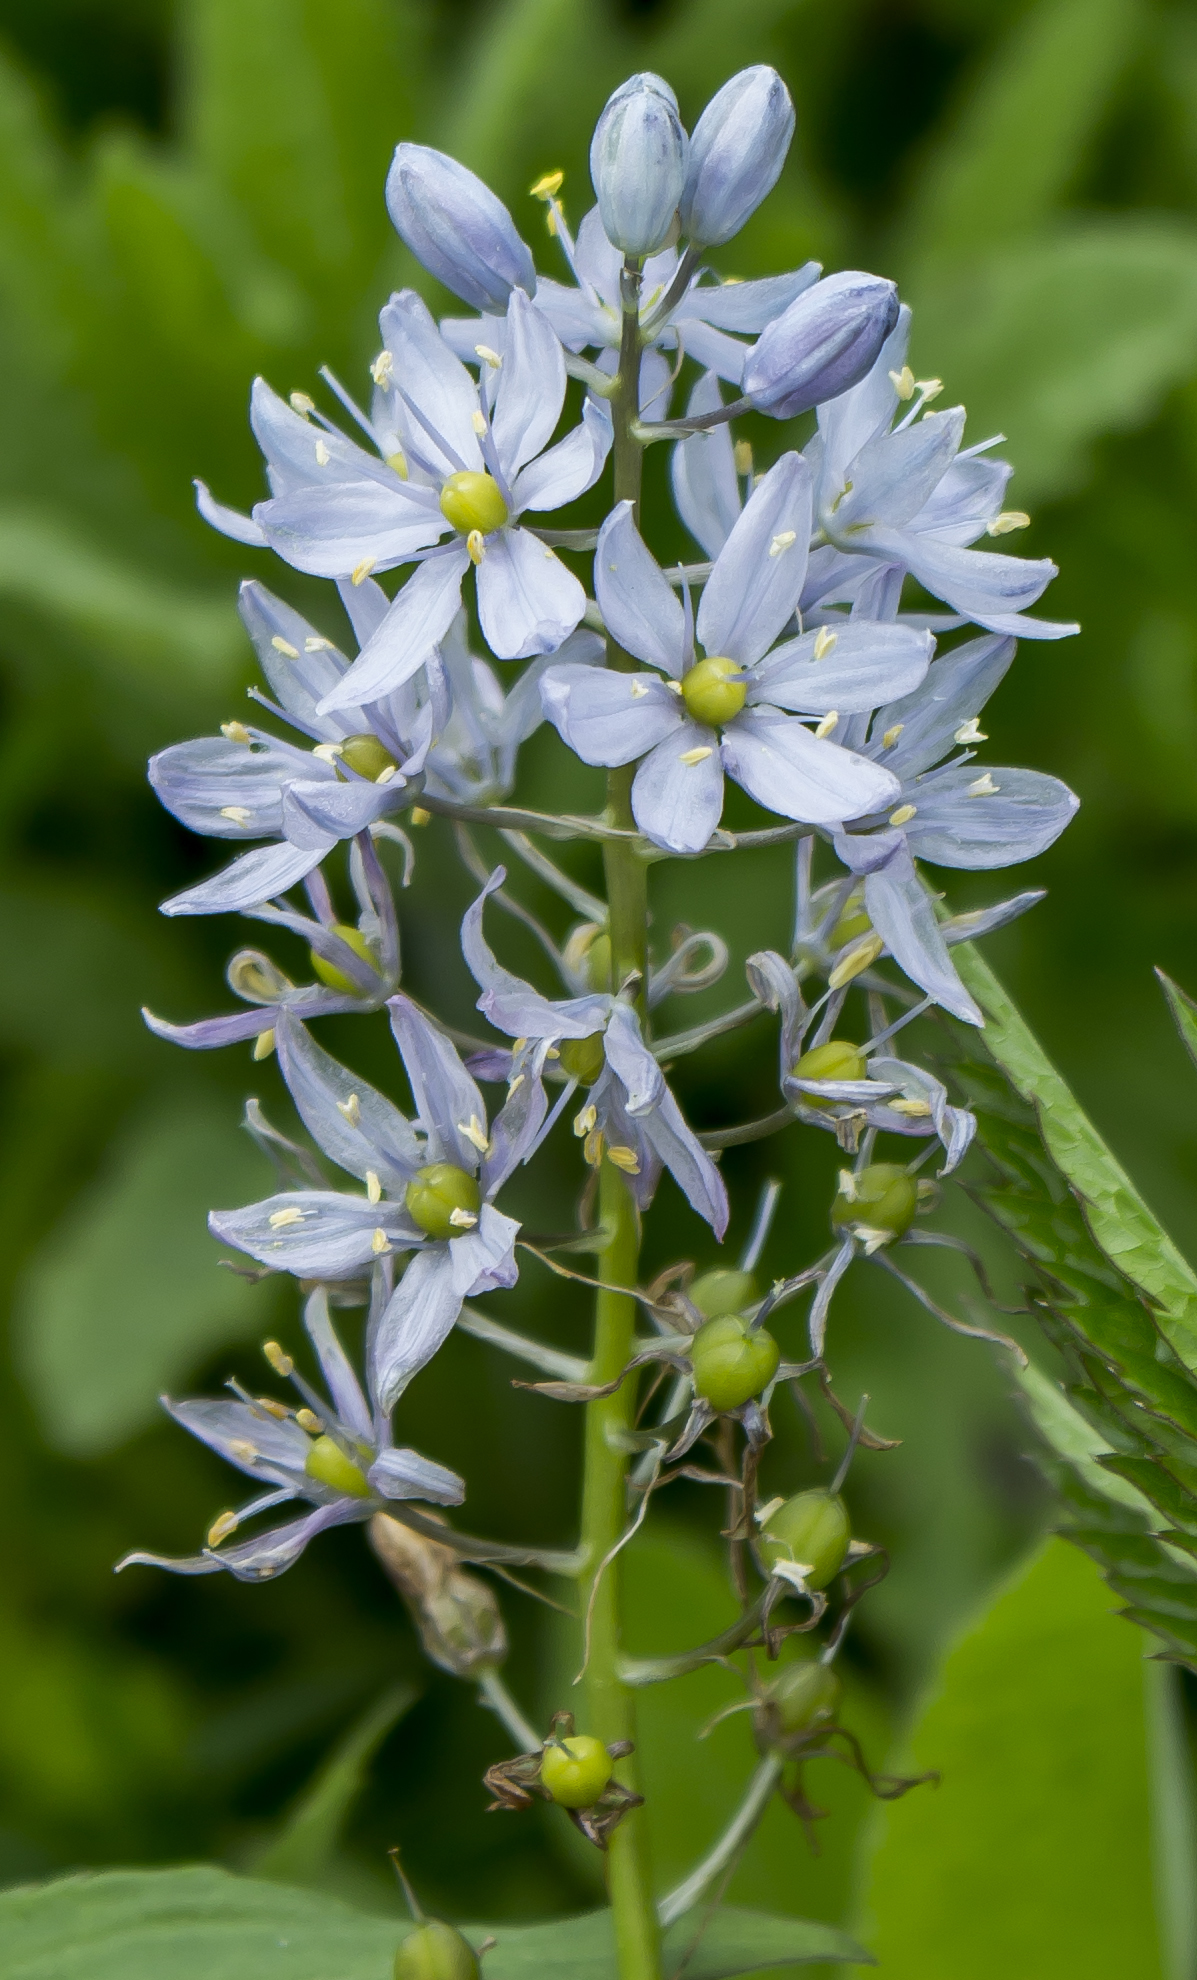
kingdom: Plantae
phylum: Tracheophyta
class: Liliopsida
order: Asparagales
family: Asparagaceae
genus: Camassia
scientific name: Camassia scilloides
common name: Wild hyacinth
